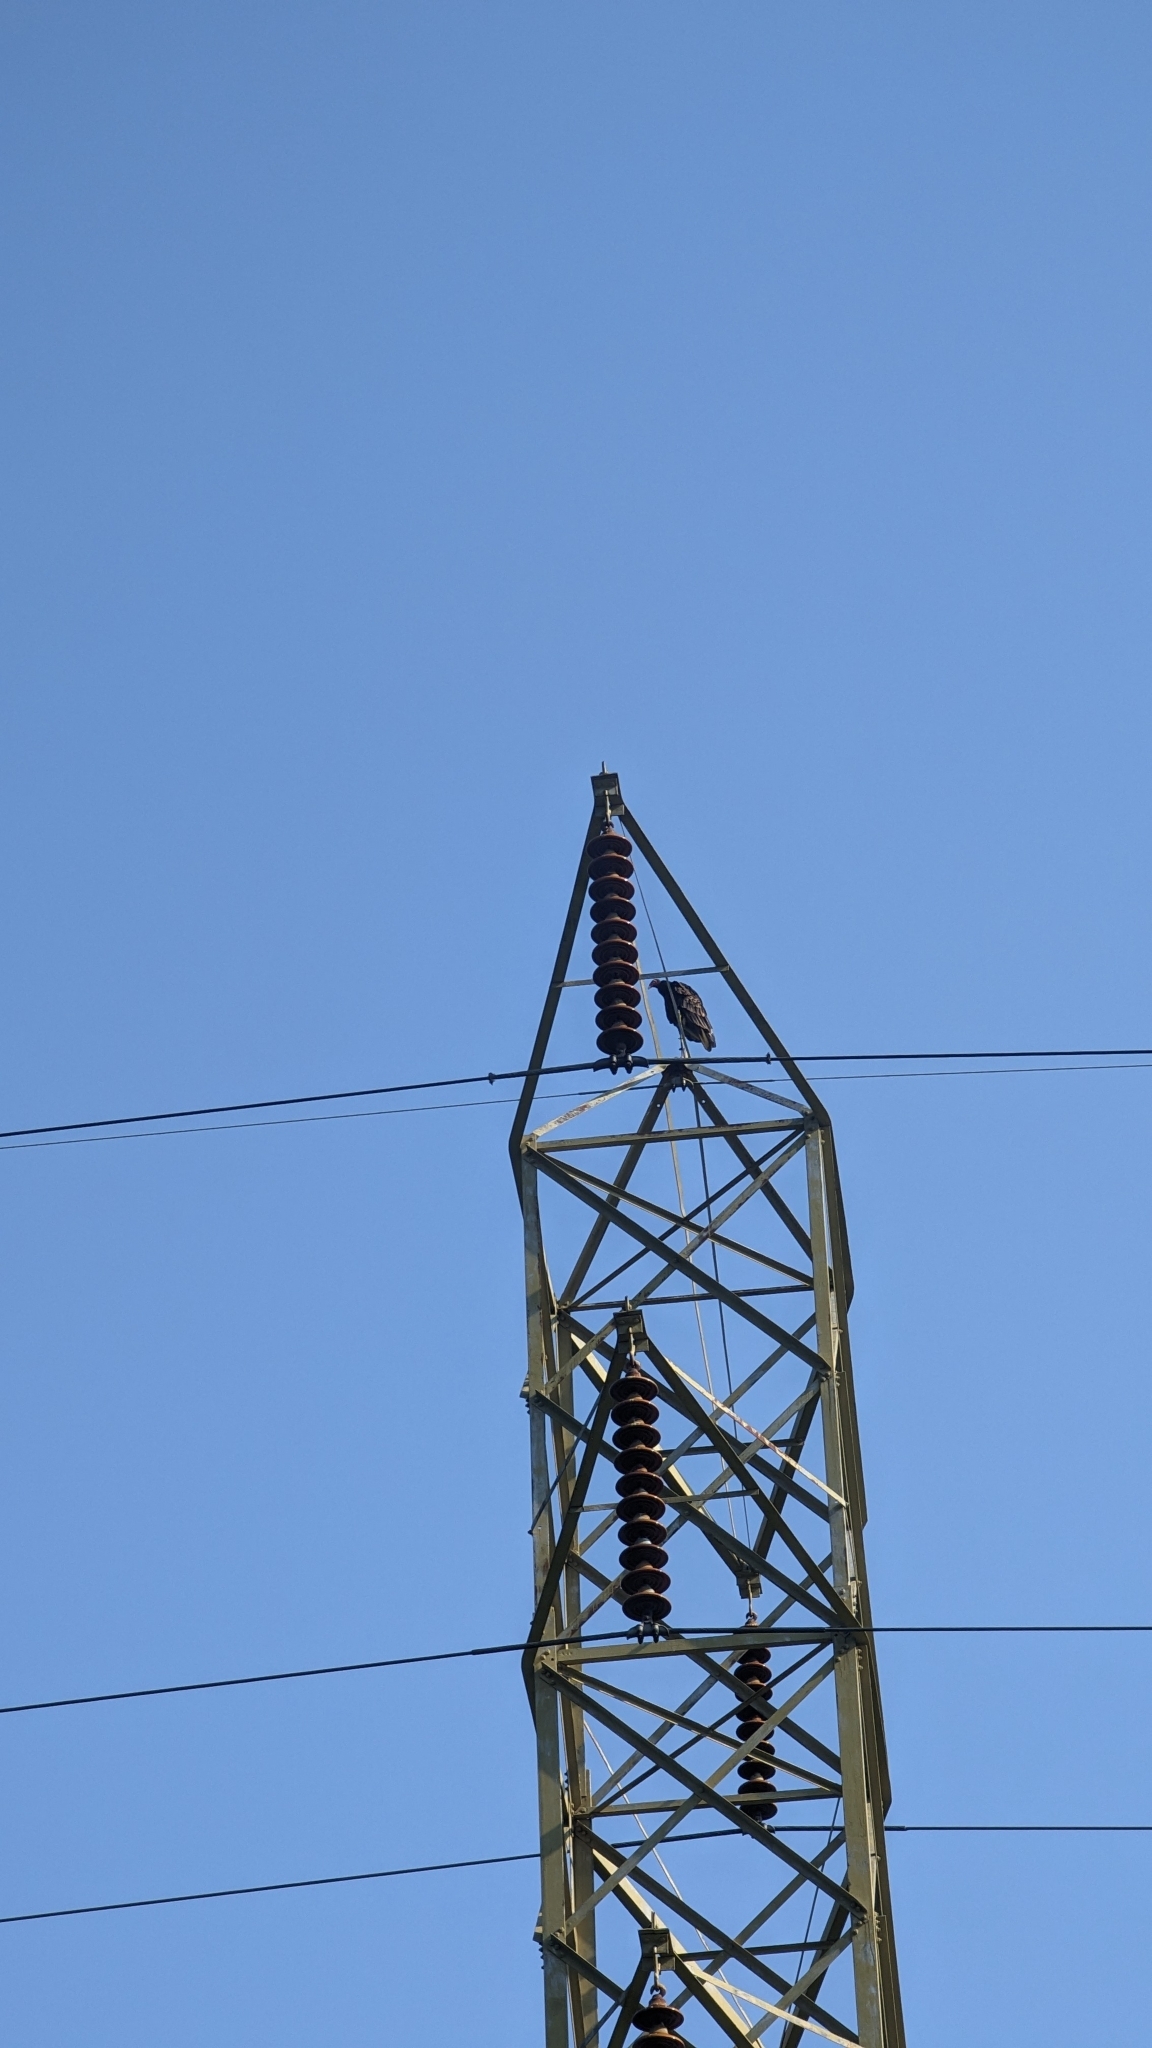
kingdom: Animalia
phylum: Chordata
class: Aves
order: Accipitriformes
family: Cathartidae
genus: Cathartes
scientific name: Cathartes aura
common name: Turkey vulture
